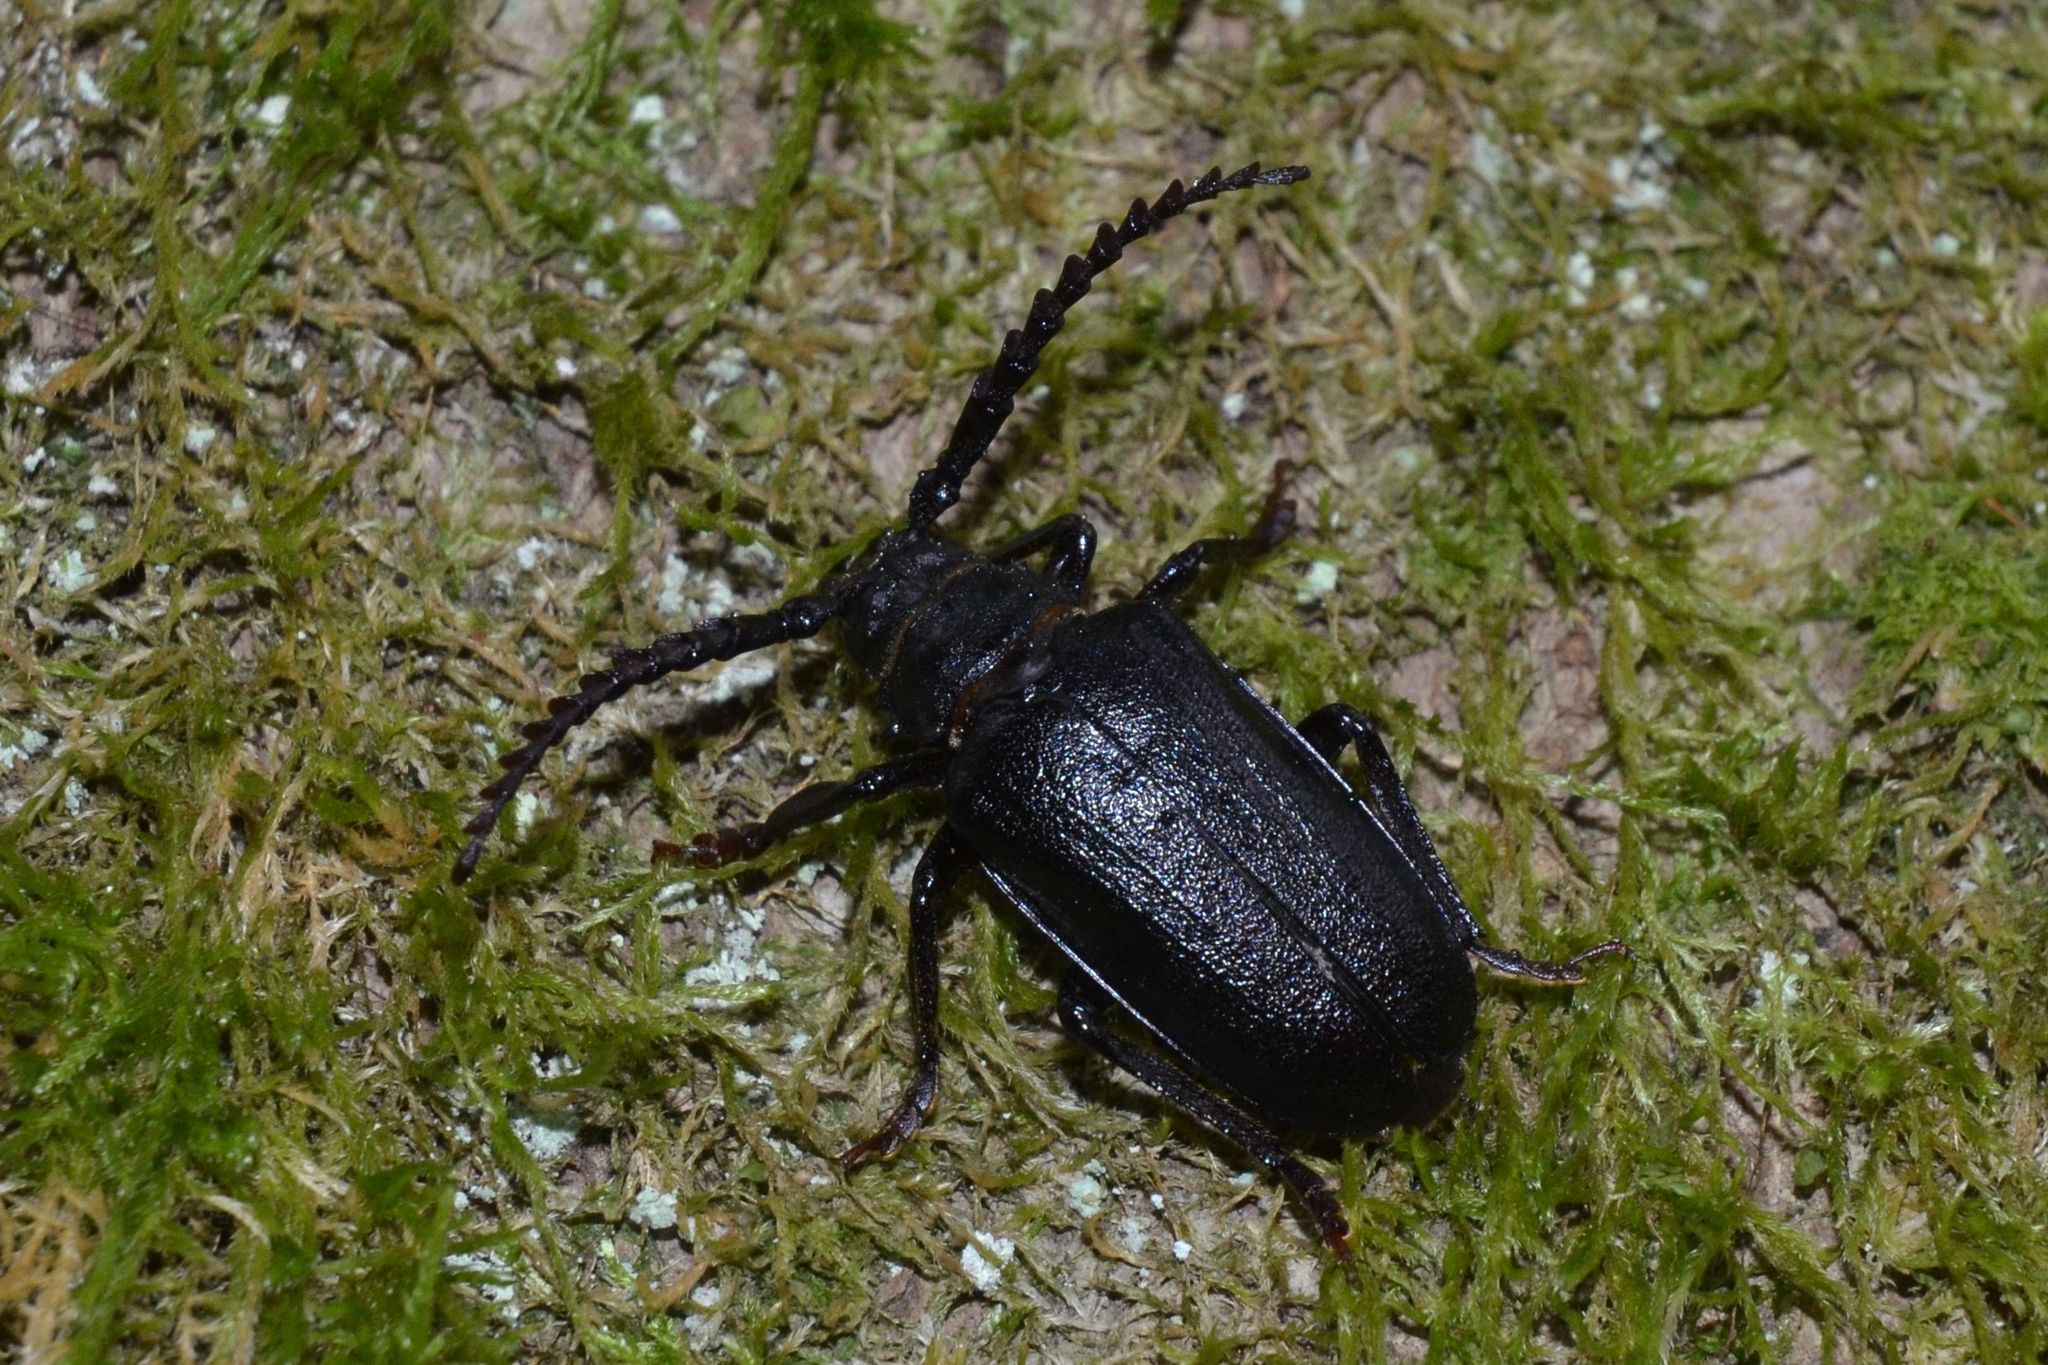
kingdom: Animalia
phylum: Arthropoda
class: Insecta
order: Coleoptera
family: Cerambycidae
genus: Prionus
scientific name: Prionus coriarius
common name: Tanner beetle
